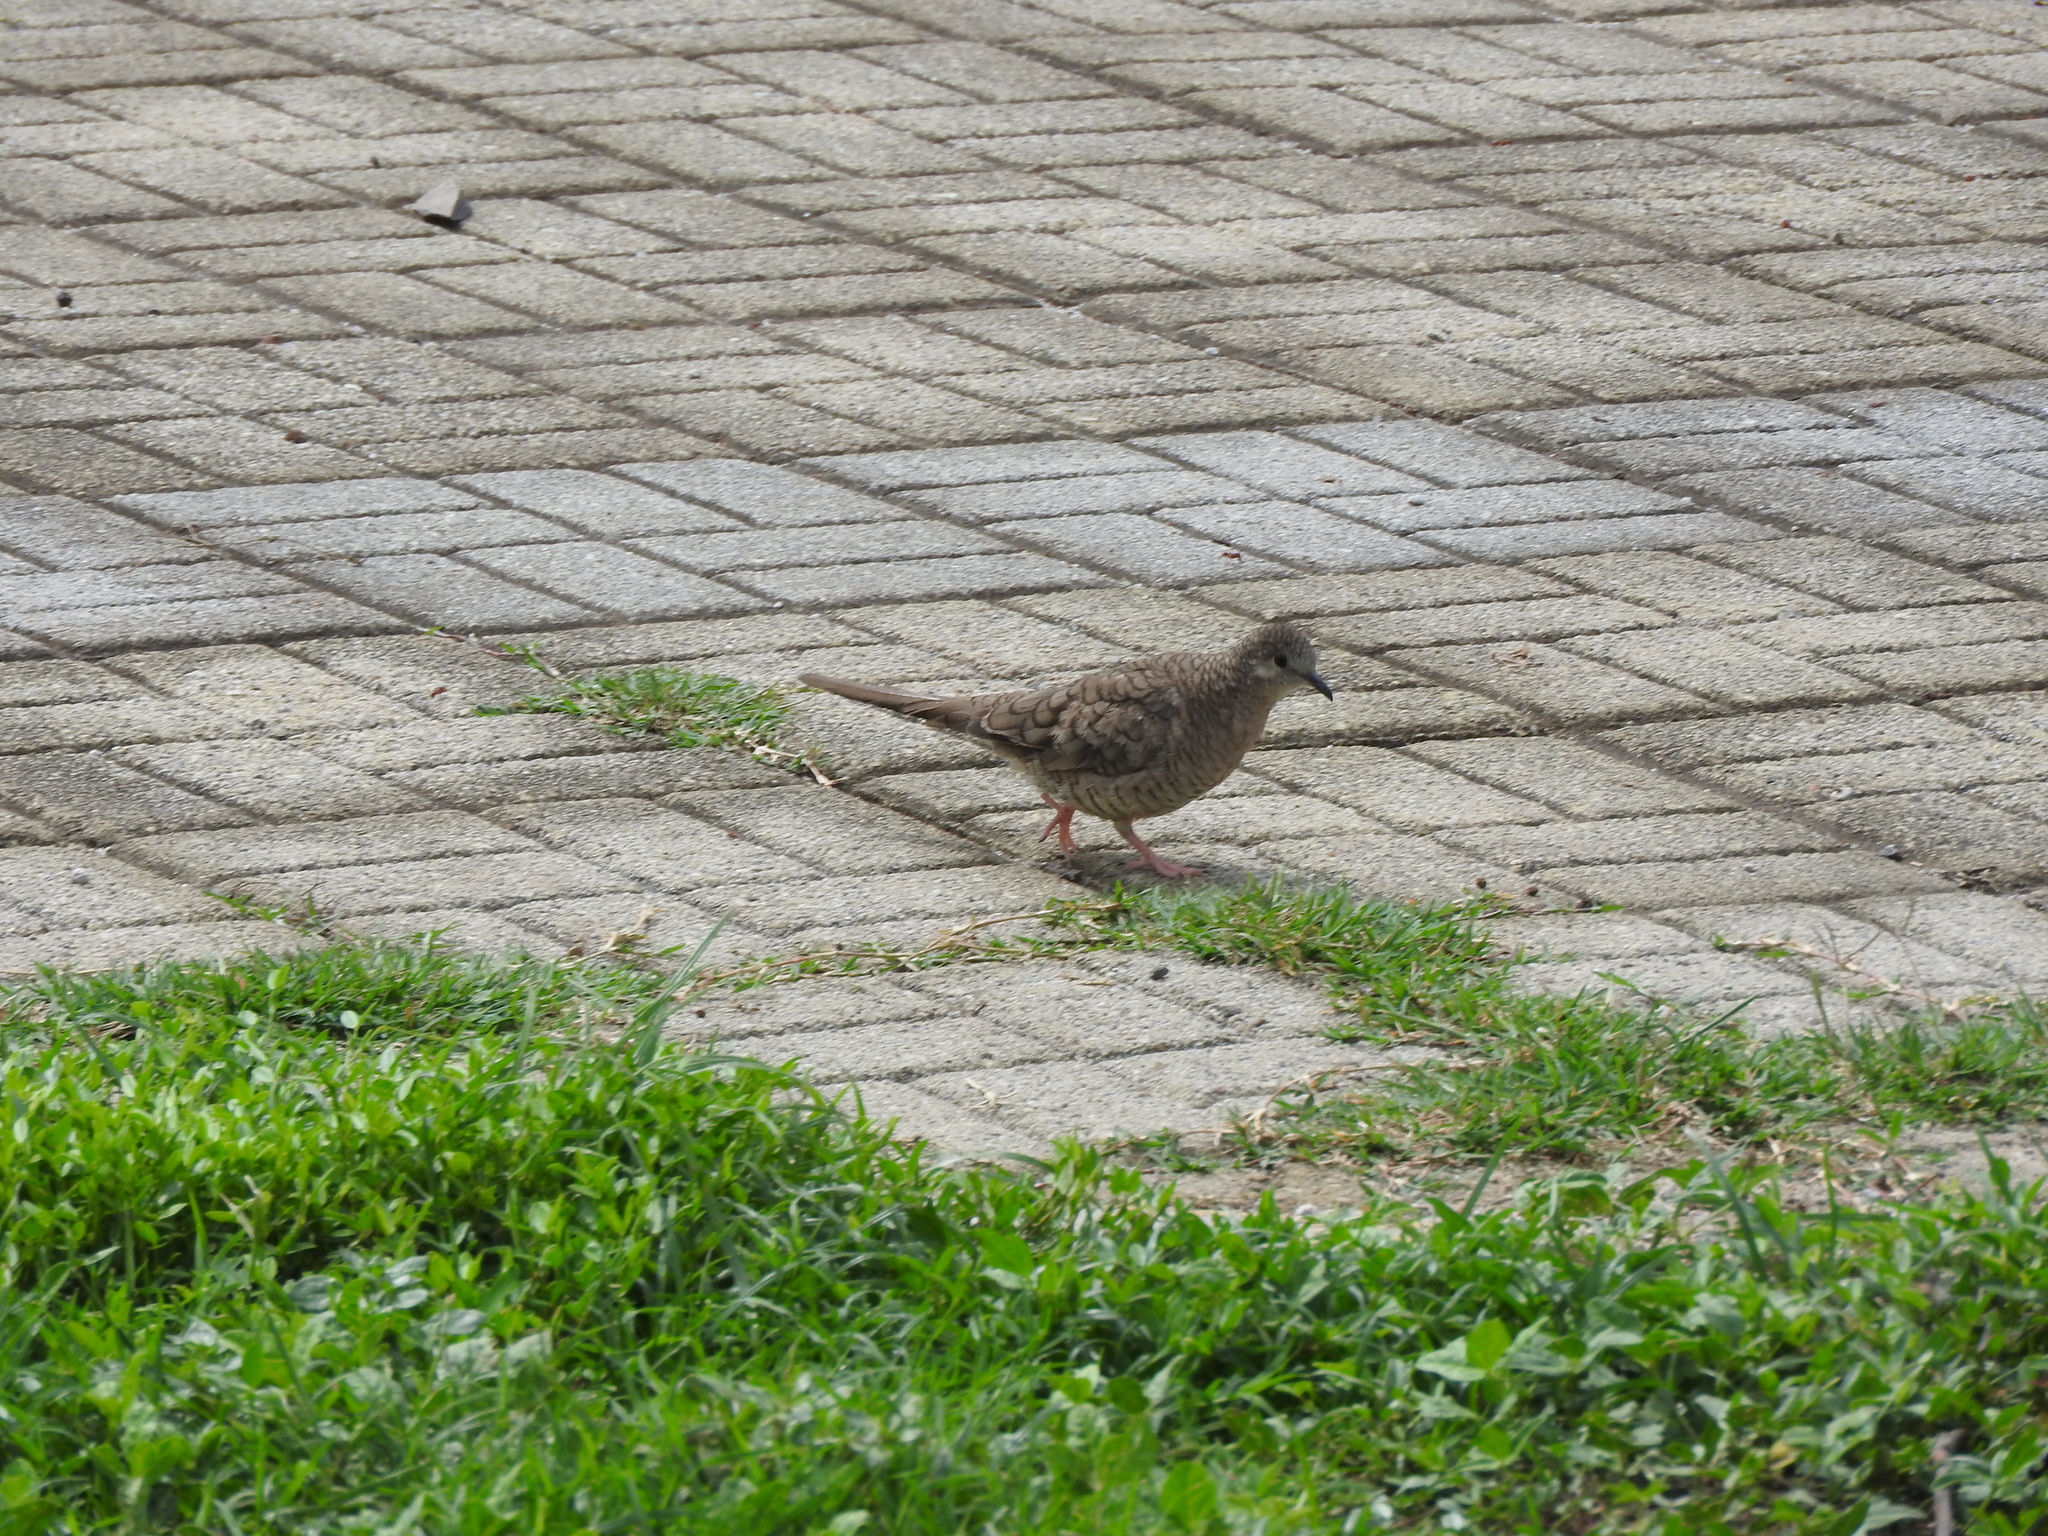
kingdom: Animalia
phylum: Chordata
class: Aves
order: Columbiformes
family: Columbidae
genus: Columbina
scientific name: Columbina inca
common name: Inca dove
